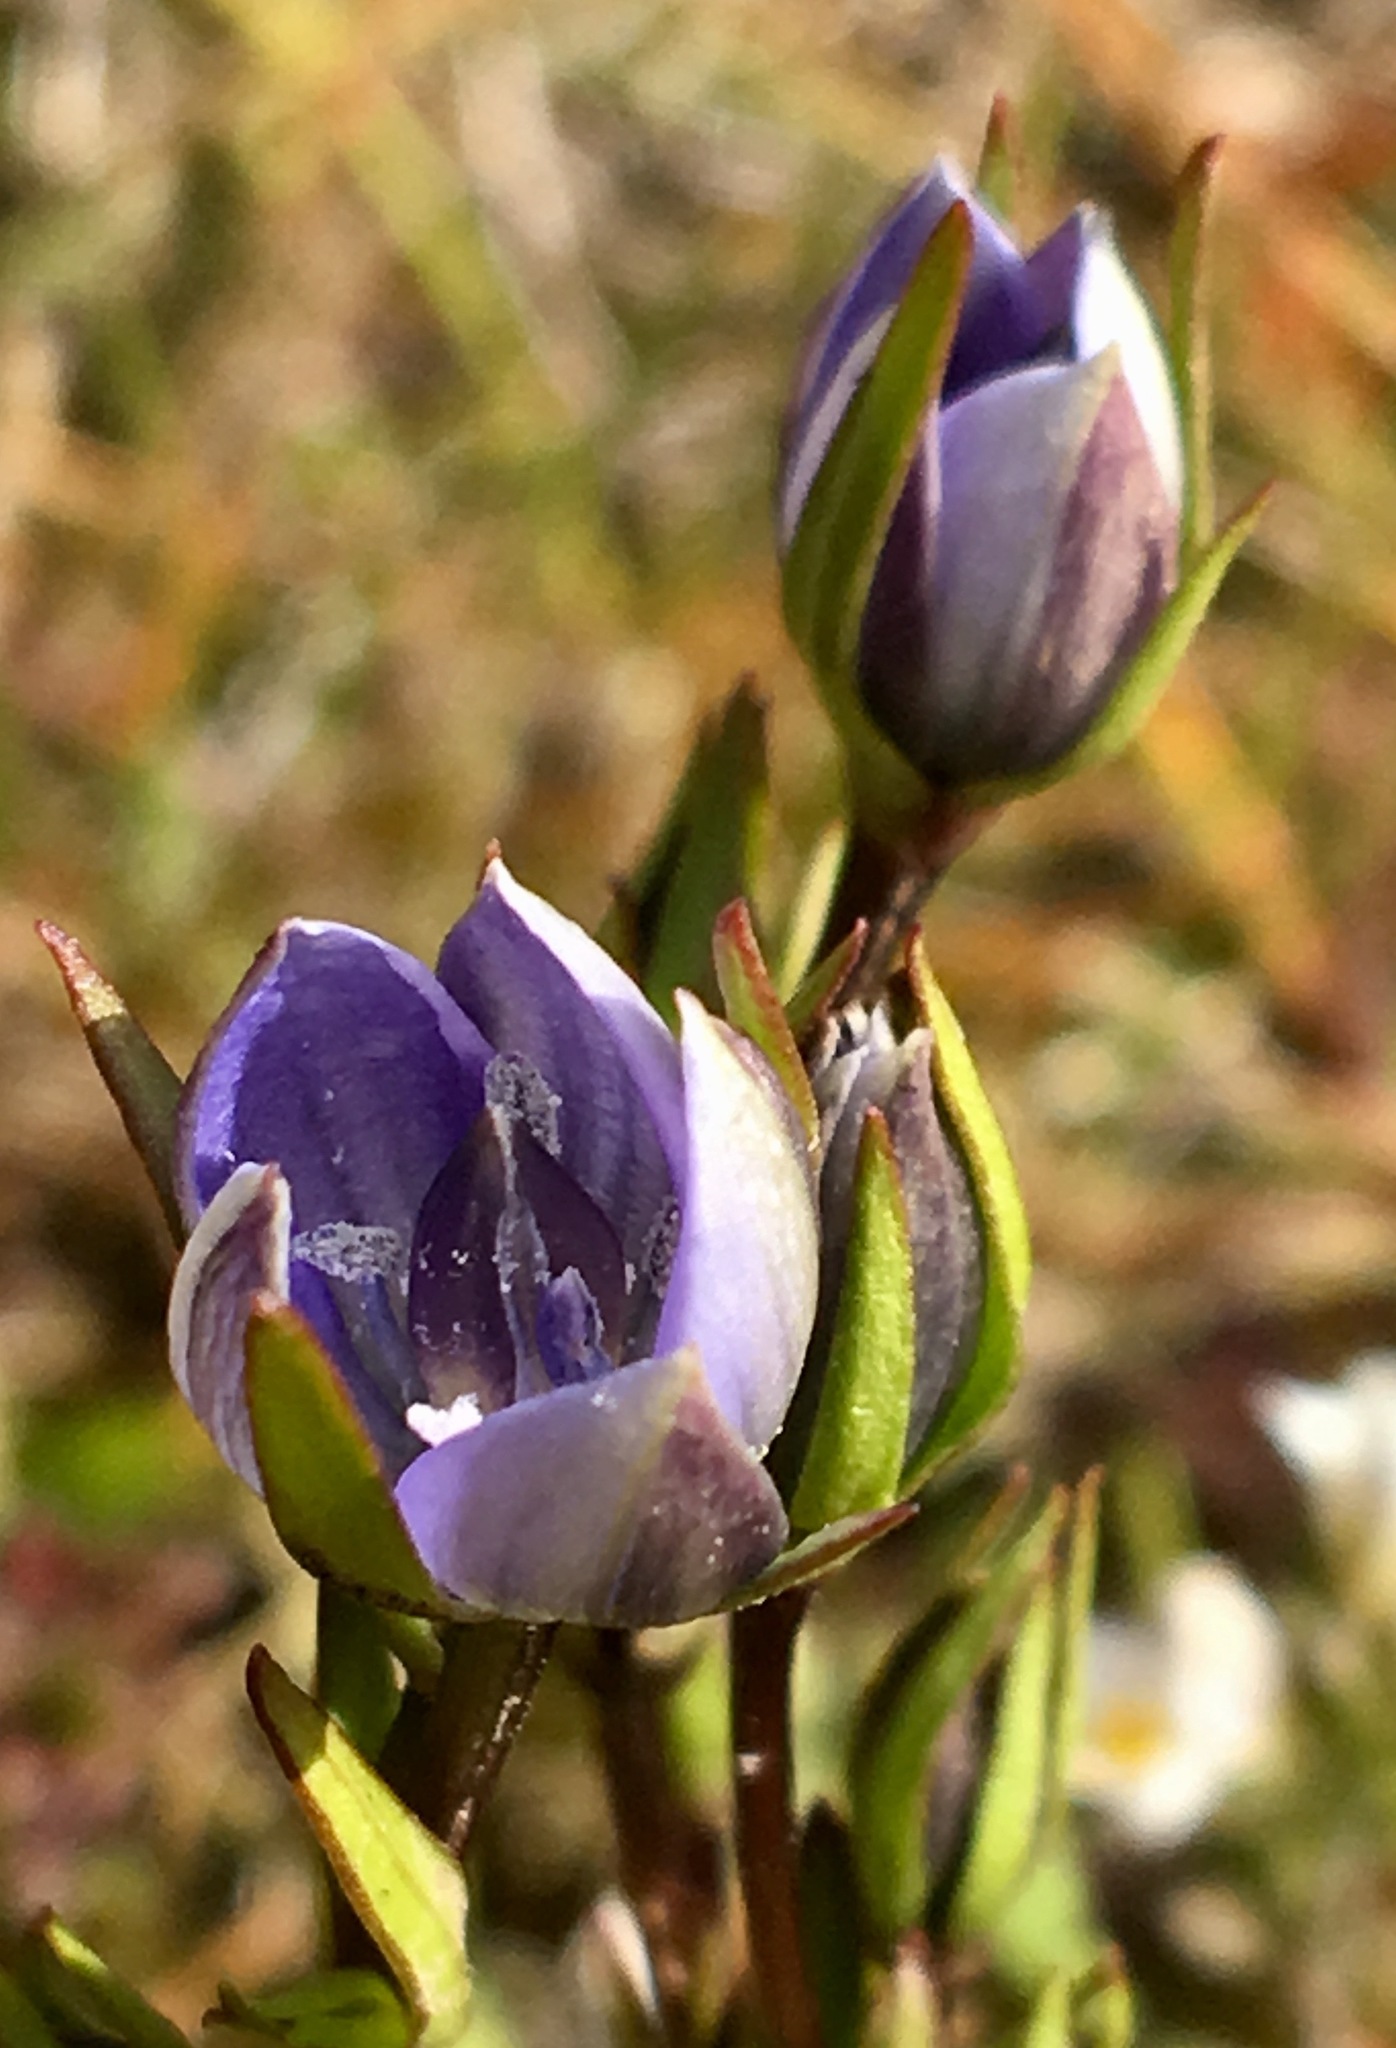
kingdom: Plantae
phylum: Tracheophyta
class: Magnoliopsida
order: Gentianales
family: Gentianaceae
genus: Lomatogonium
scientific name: Lomatogonium rotatum
